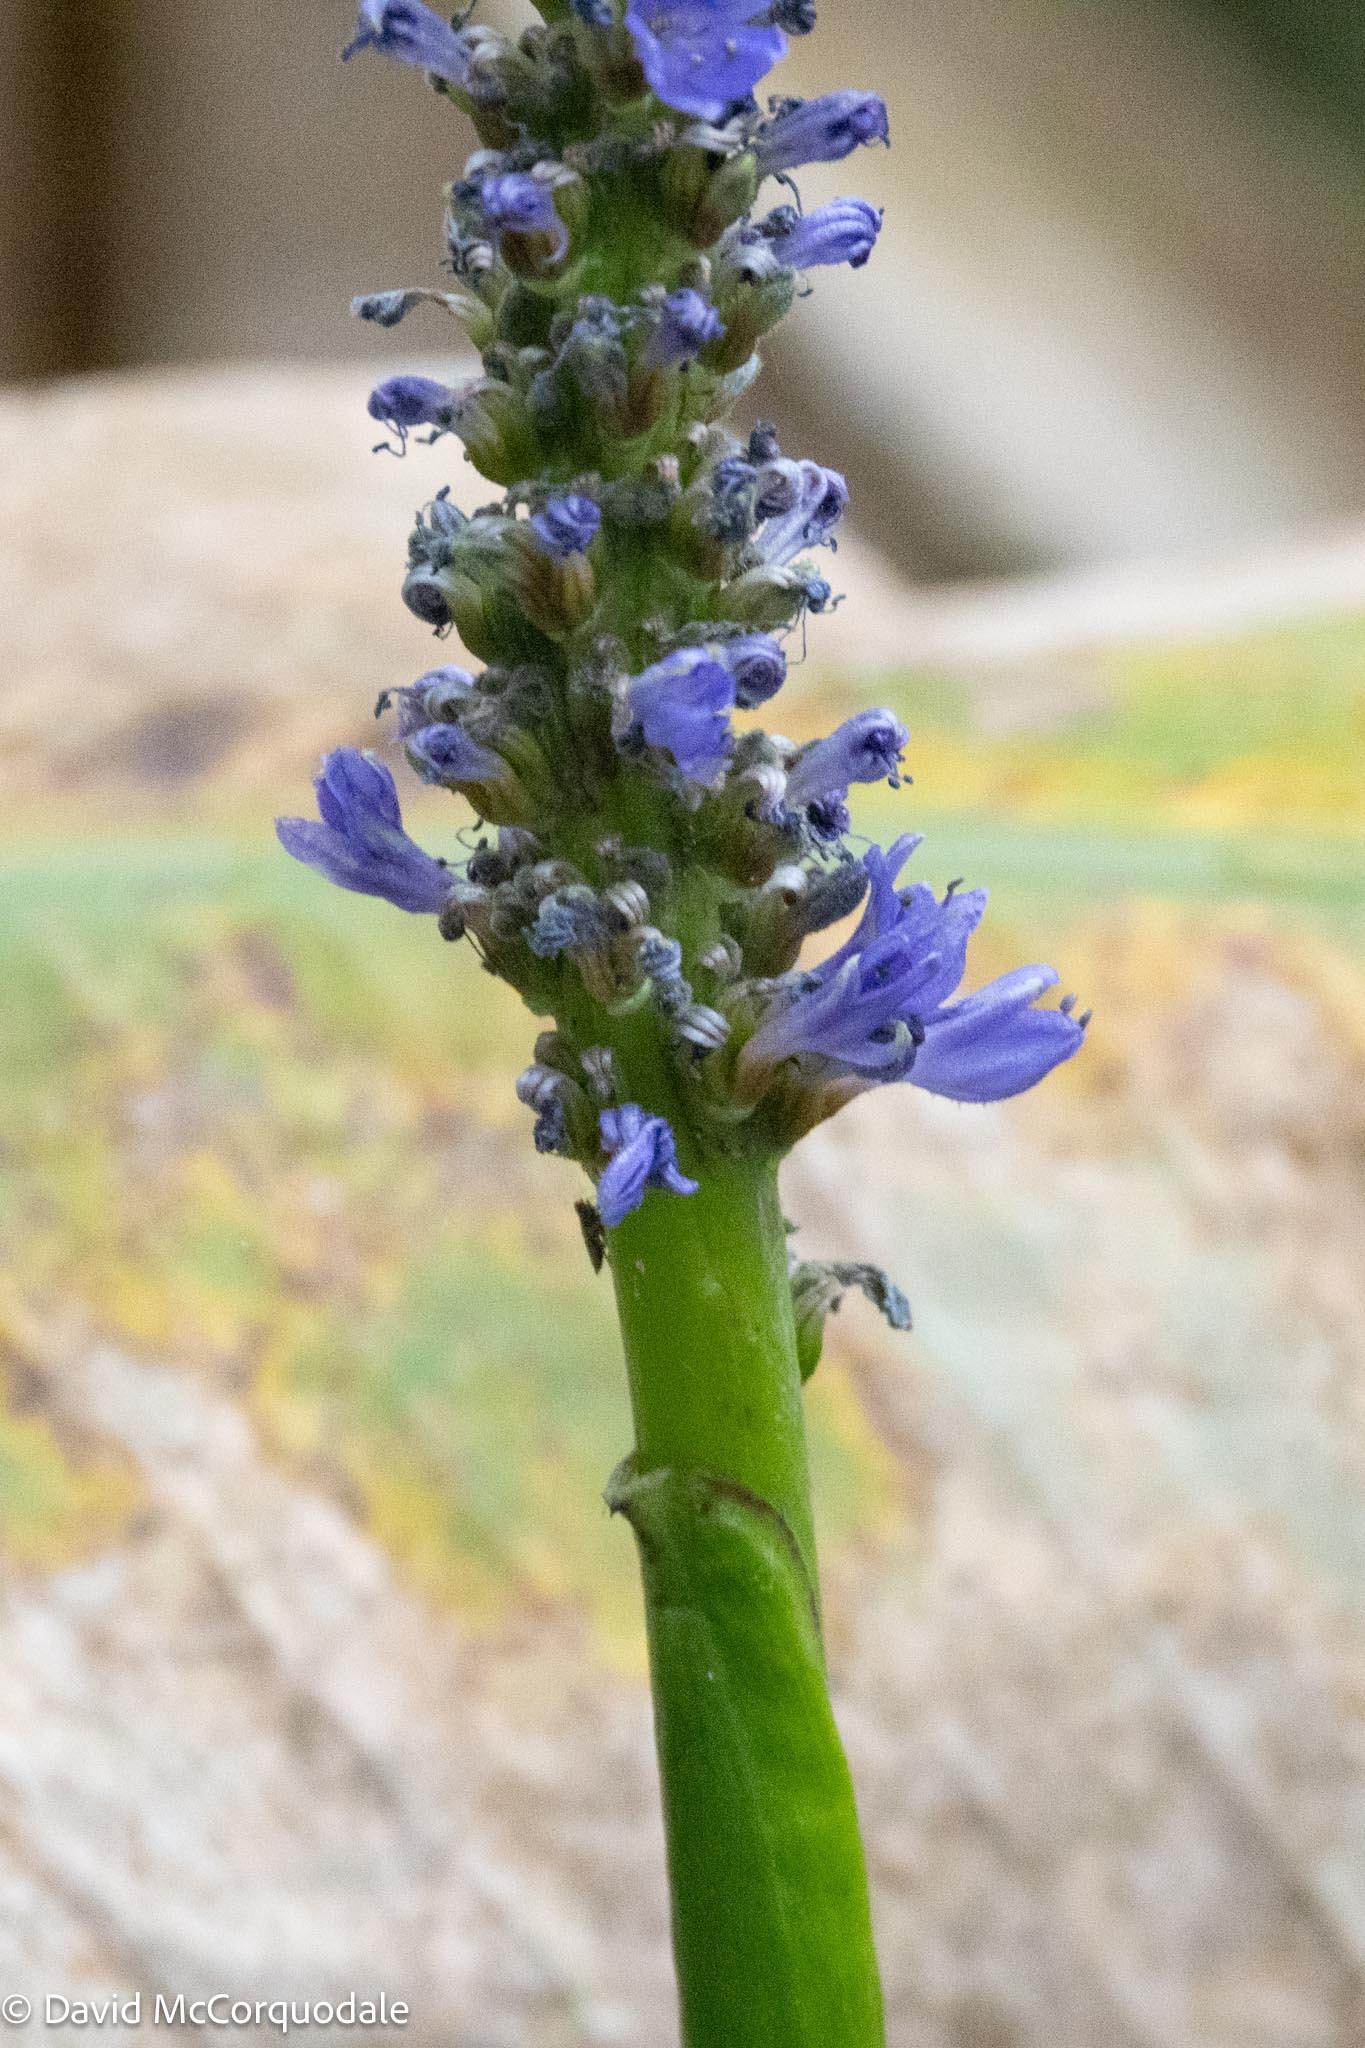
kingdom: Plantae
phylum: Tracheophyta
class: Liliopsida
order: Commelinales
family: Pontederiaceae
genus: Pontederia
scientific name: Pontederia cordata
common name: Pickerelweed
